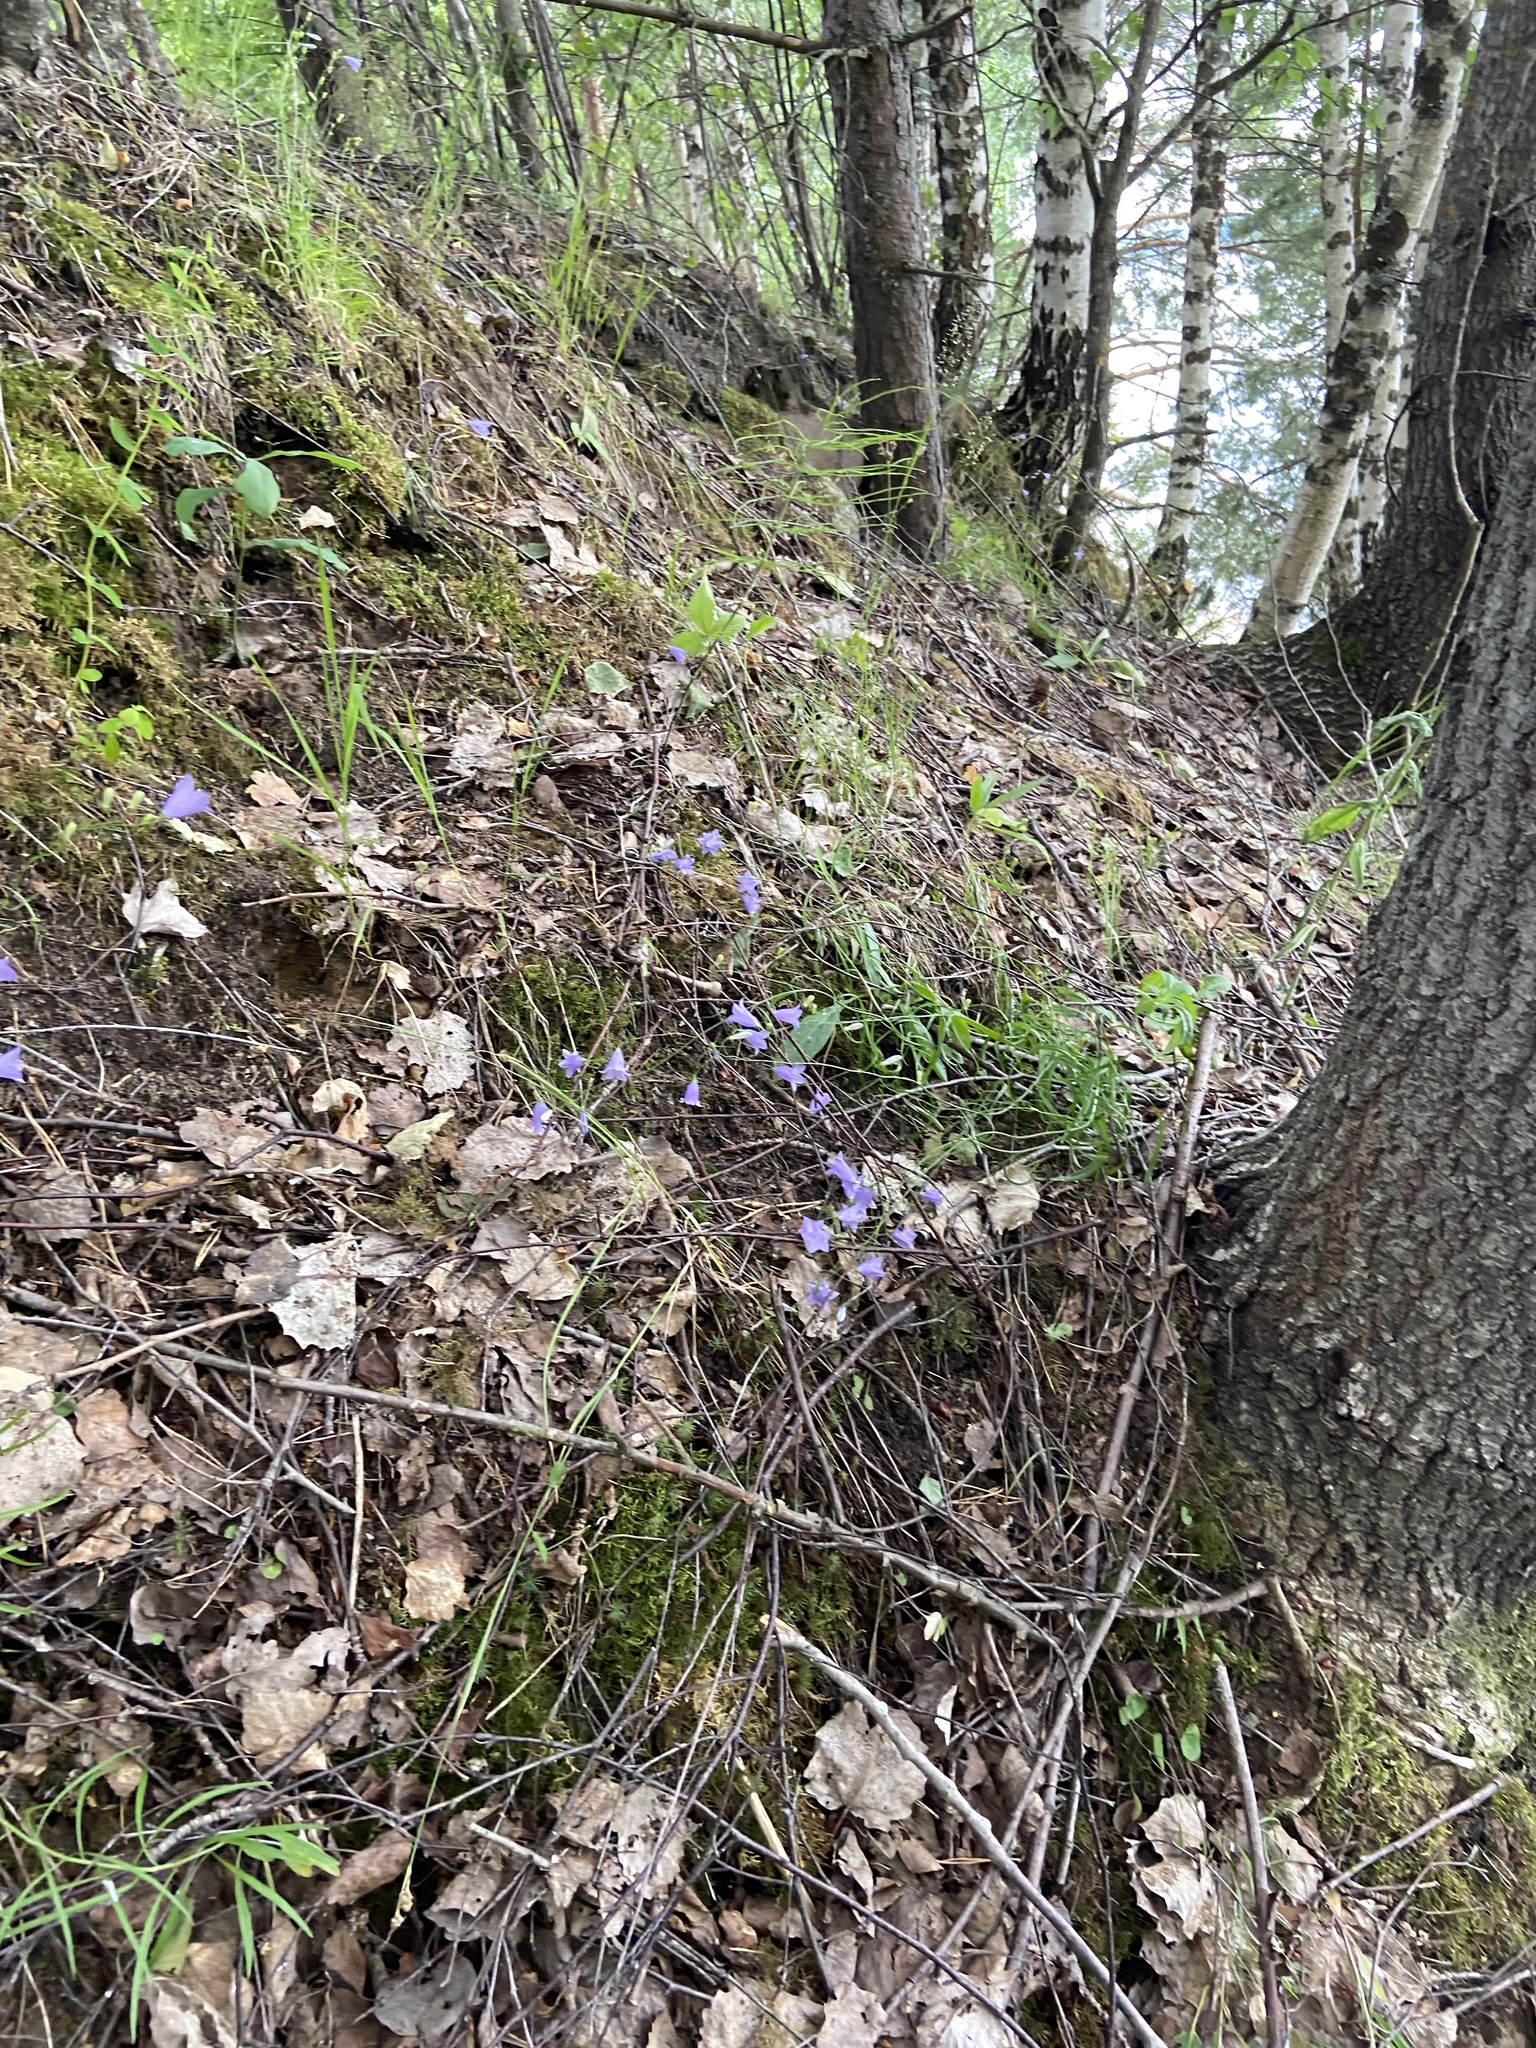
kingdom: Plantae
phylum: Tracheophyta
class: Magnoliopsida
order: Asterales
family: Campanulaceae
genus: Campanula
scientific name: Campanula rotundifolia
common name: Harebell
